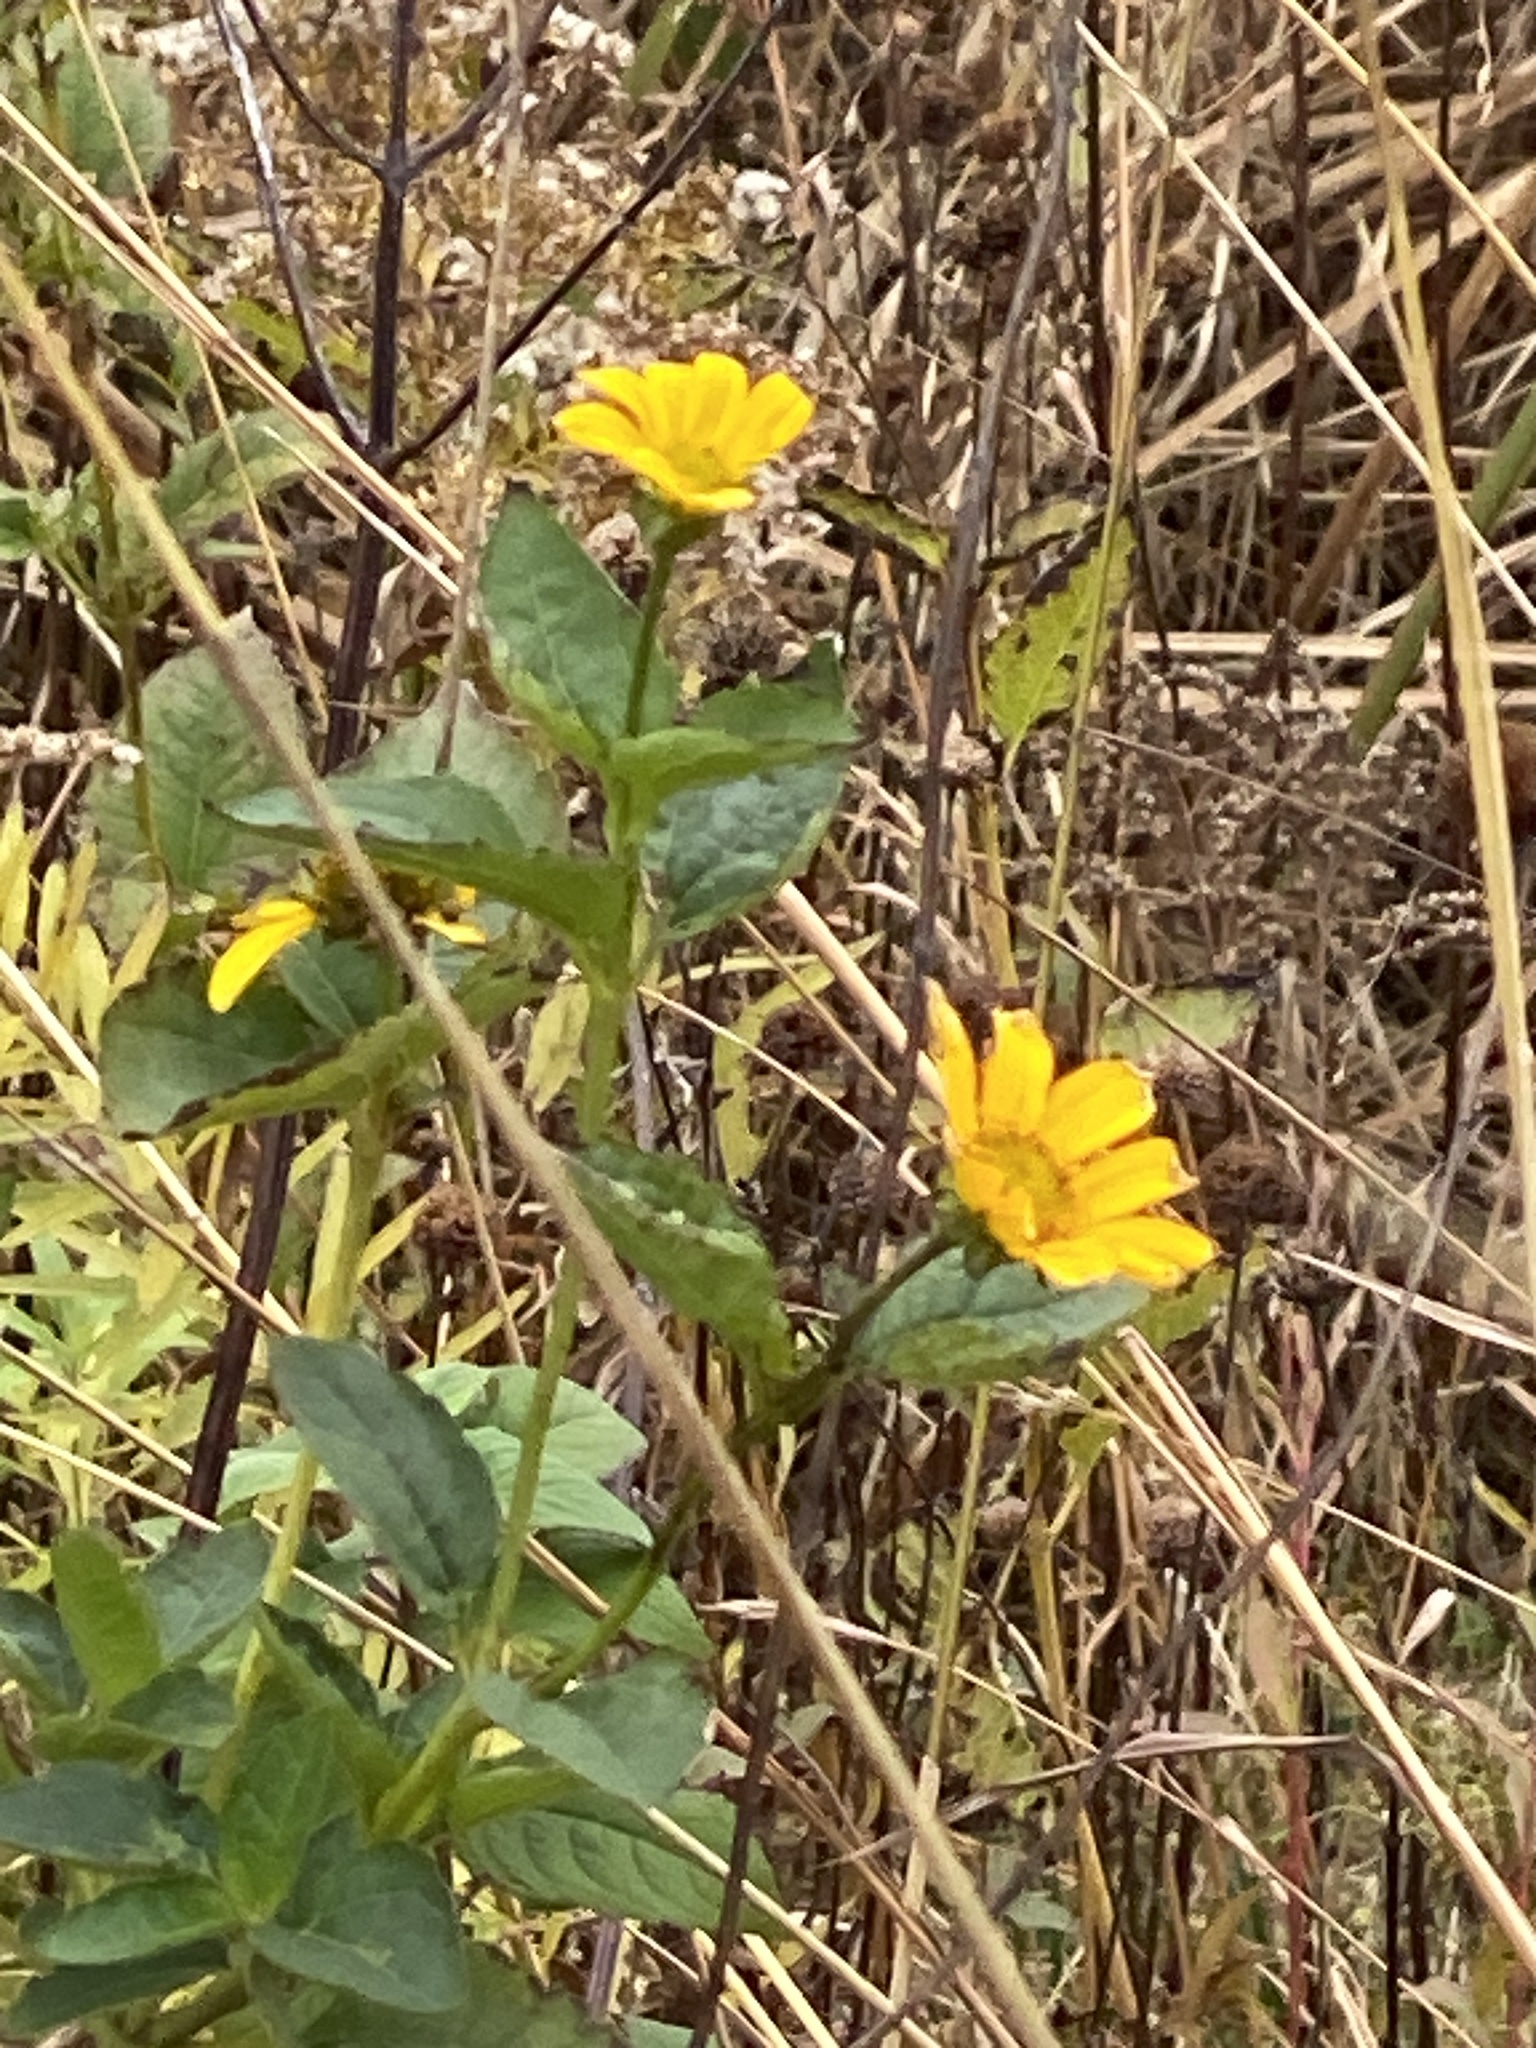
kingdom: Plantae
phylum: Tracheophyta
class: Magnoliopsida
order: Asterales
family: Asteraceae
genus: Heliopsis
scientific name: Heliopsis helianthoides
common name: False sunflower
